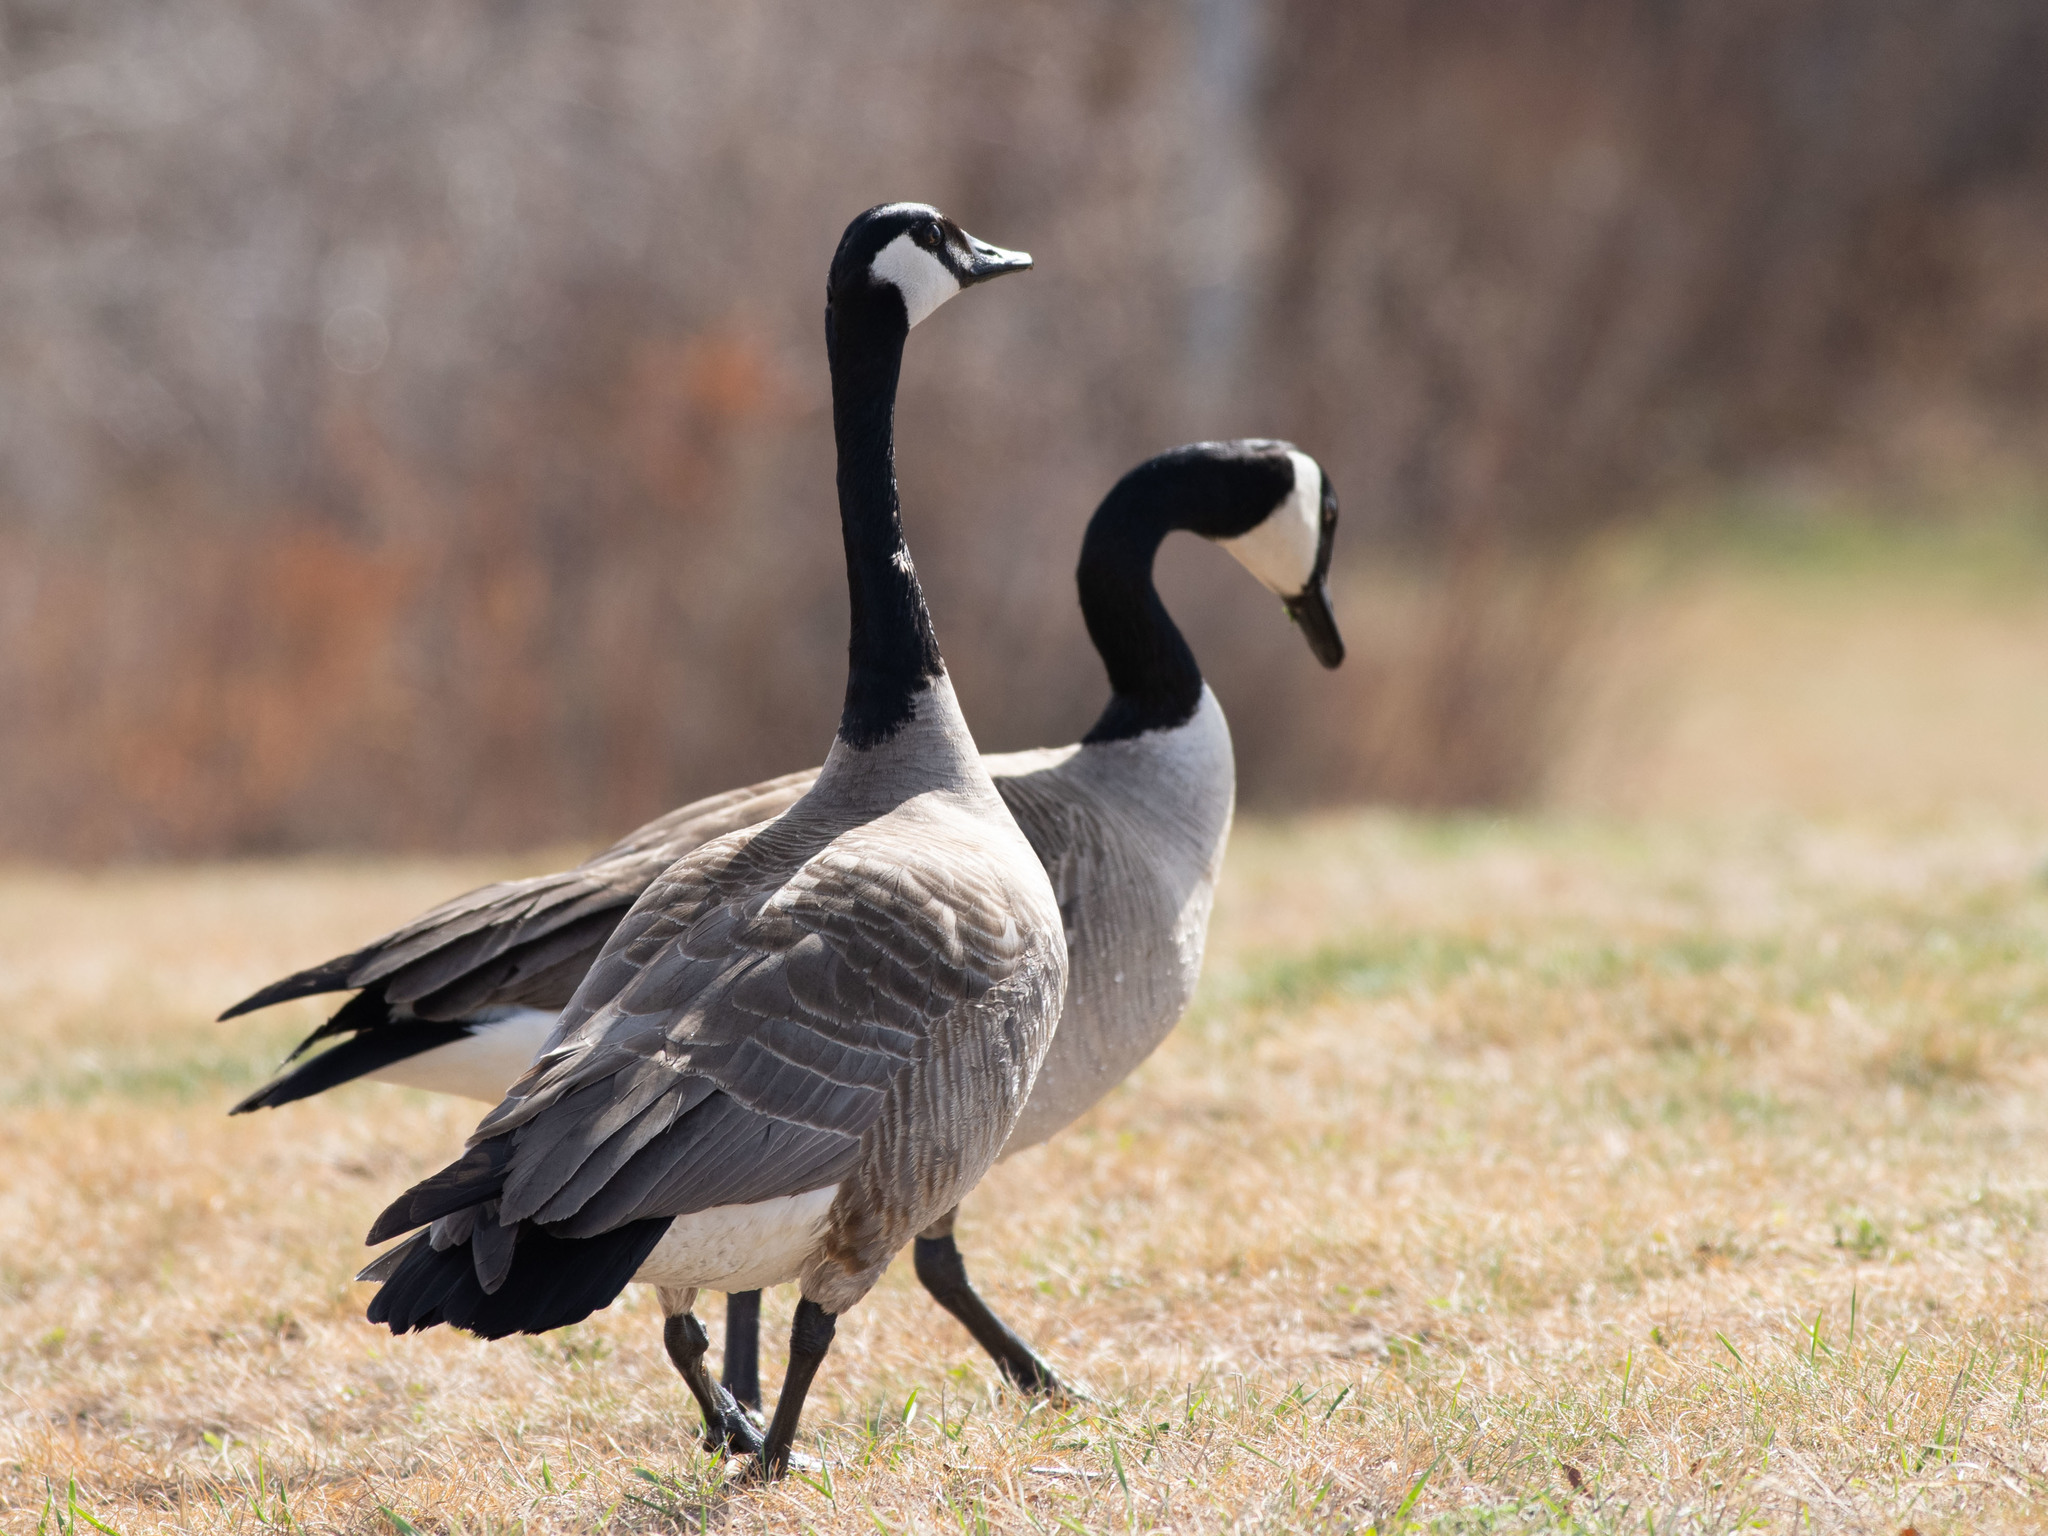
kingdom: Animalia
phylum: Chordata
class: Aves
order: Anseriformes
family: Anatidae
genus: Branta
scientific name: Branta canadensis
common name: Canada goose
